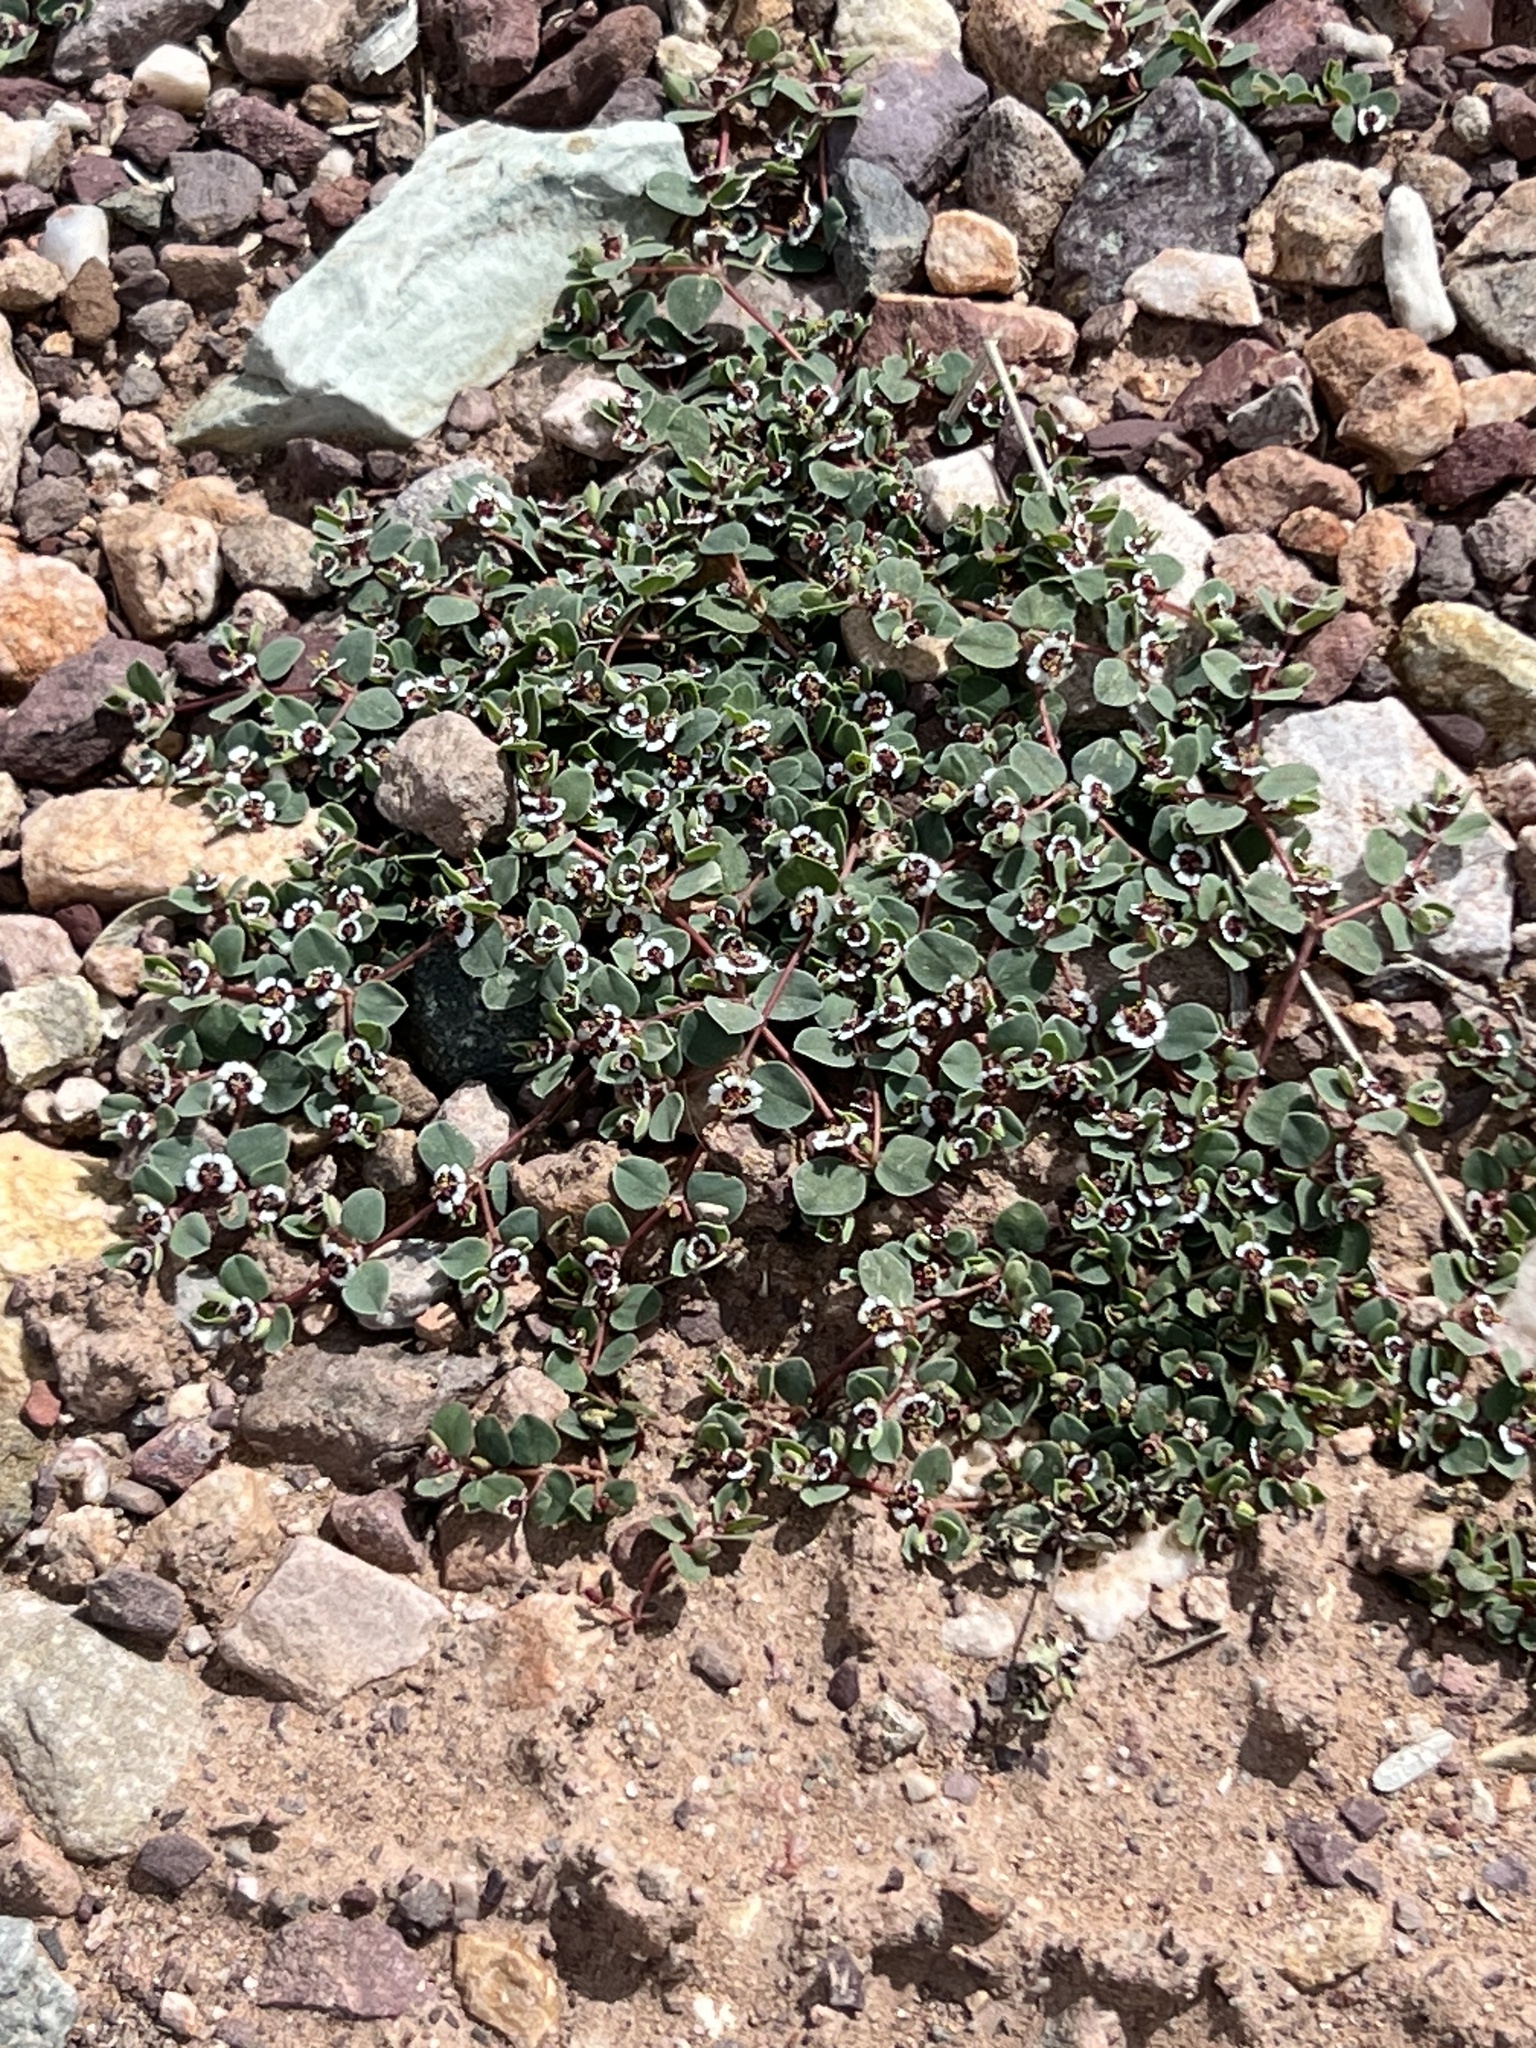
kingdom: Plantae
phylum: Tracheophyta
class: Magnoliopsida
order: Malpighiales
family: Euphorbiaceae
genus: Euphorbia
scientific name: Euphorbia albomarginata
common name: Whitemargin sandmat
